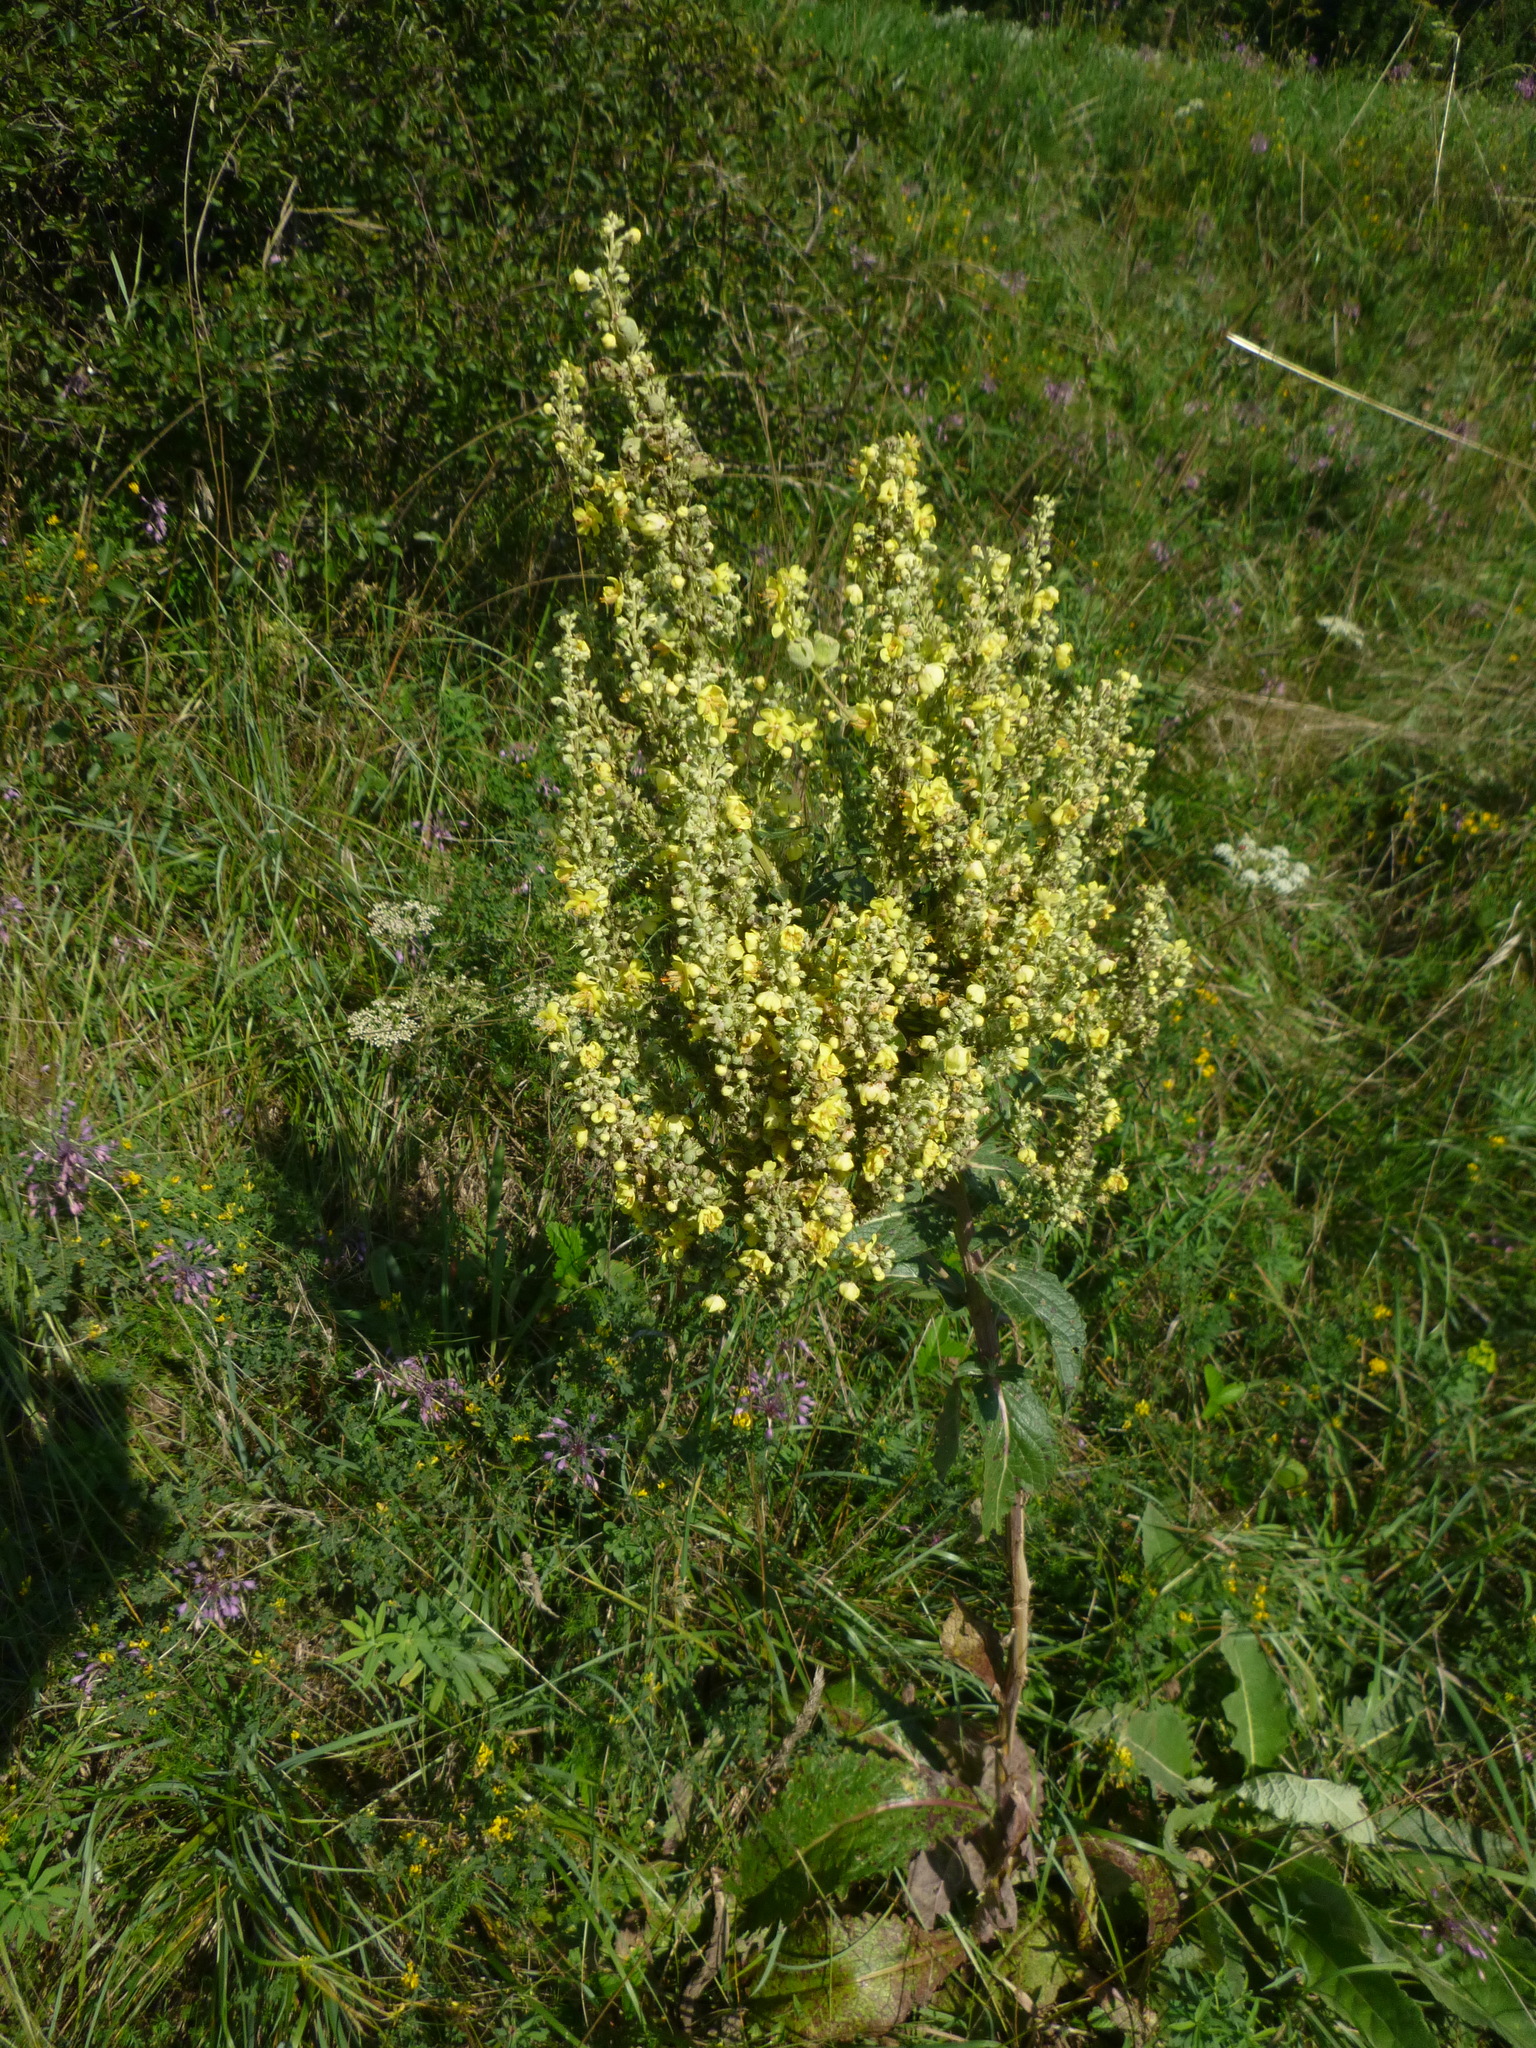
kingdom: Plantae
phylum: Tracheophyta
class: Magnoliopsida
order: Lamiales
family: Scrophulariaceae
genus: Verbascum
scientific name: Verbascum lychnitis
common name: White mullein
